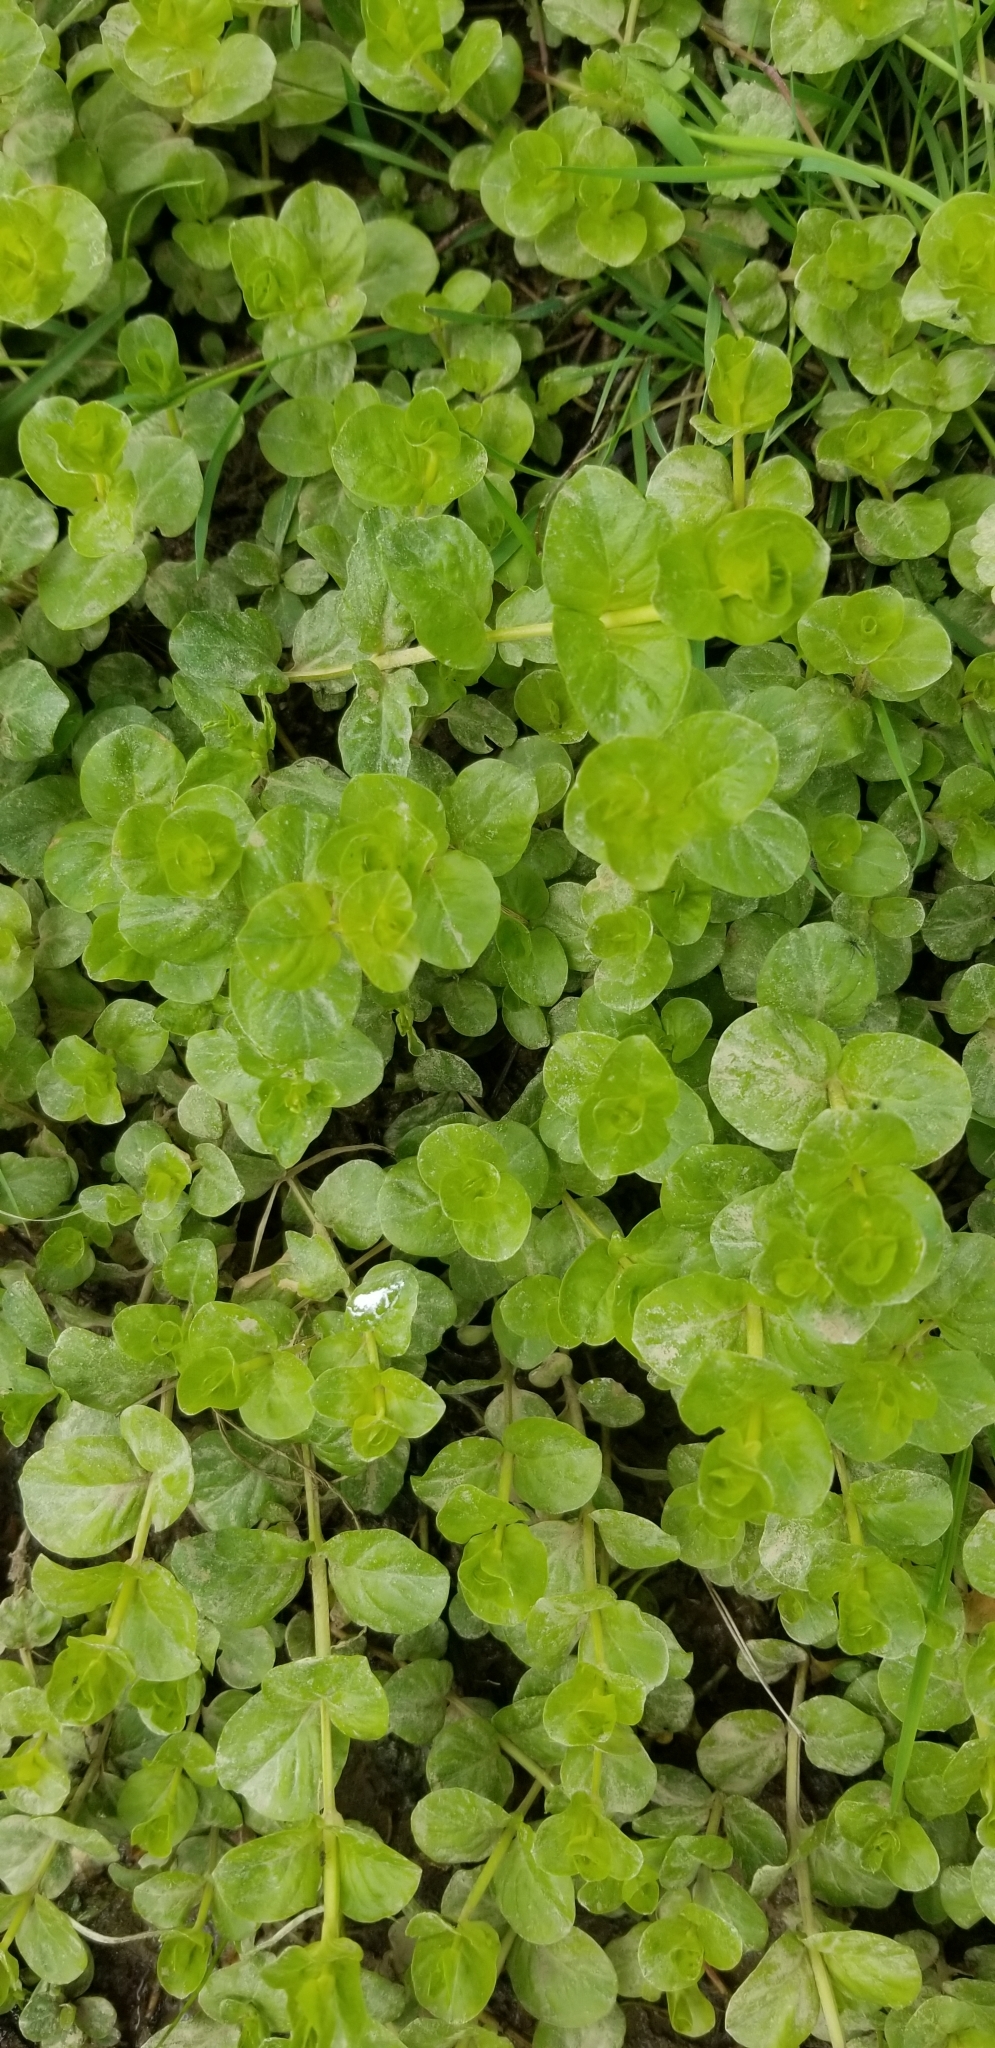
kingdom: Plantae
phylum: Tracheophyta
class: Magnoliopsida
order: Ericales
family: Primulaceae
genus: Lysimachia
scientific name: Lysimachia nummularia
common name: Moneywort
